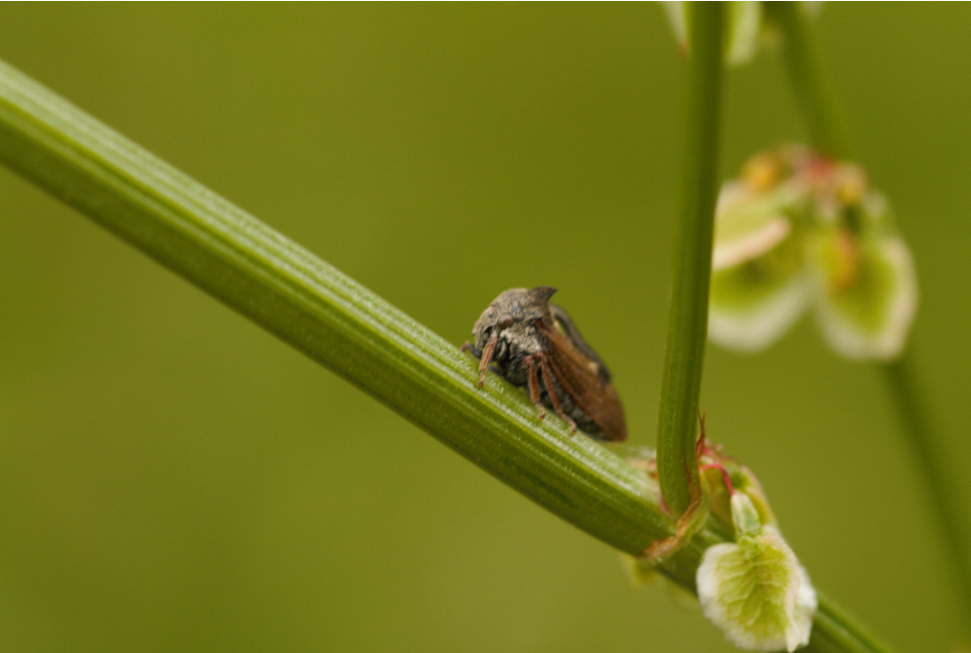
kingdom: Animalia
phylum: Arthropoda
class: Insecta
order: Hemiptera
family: Membracidae
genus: Centrotus
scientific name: Centrotus cornuta
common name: Treehopper
